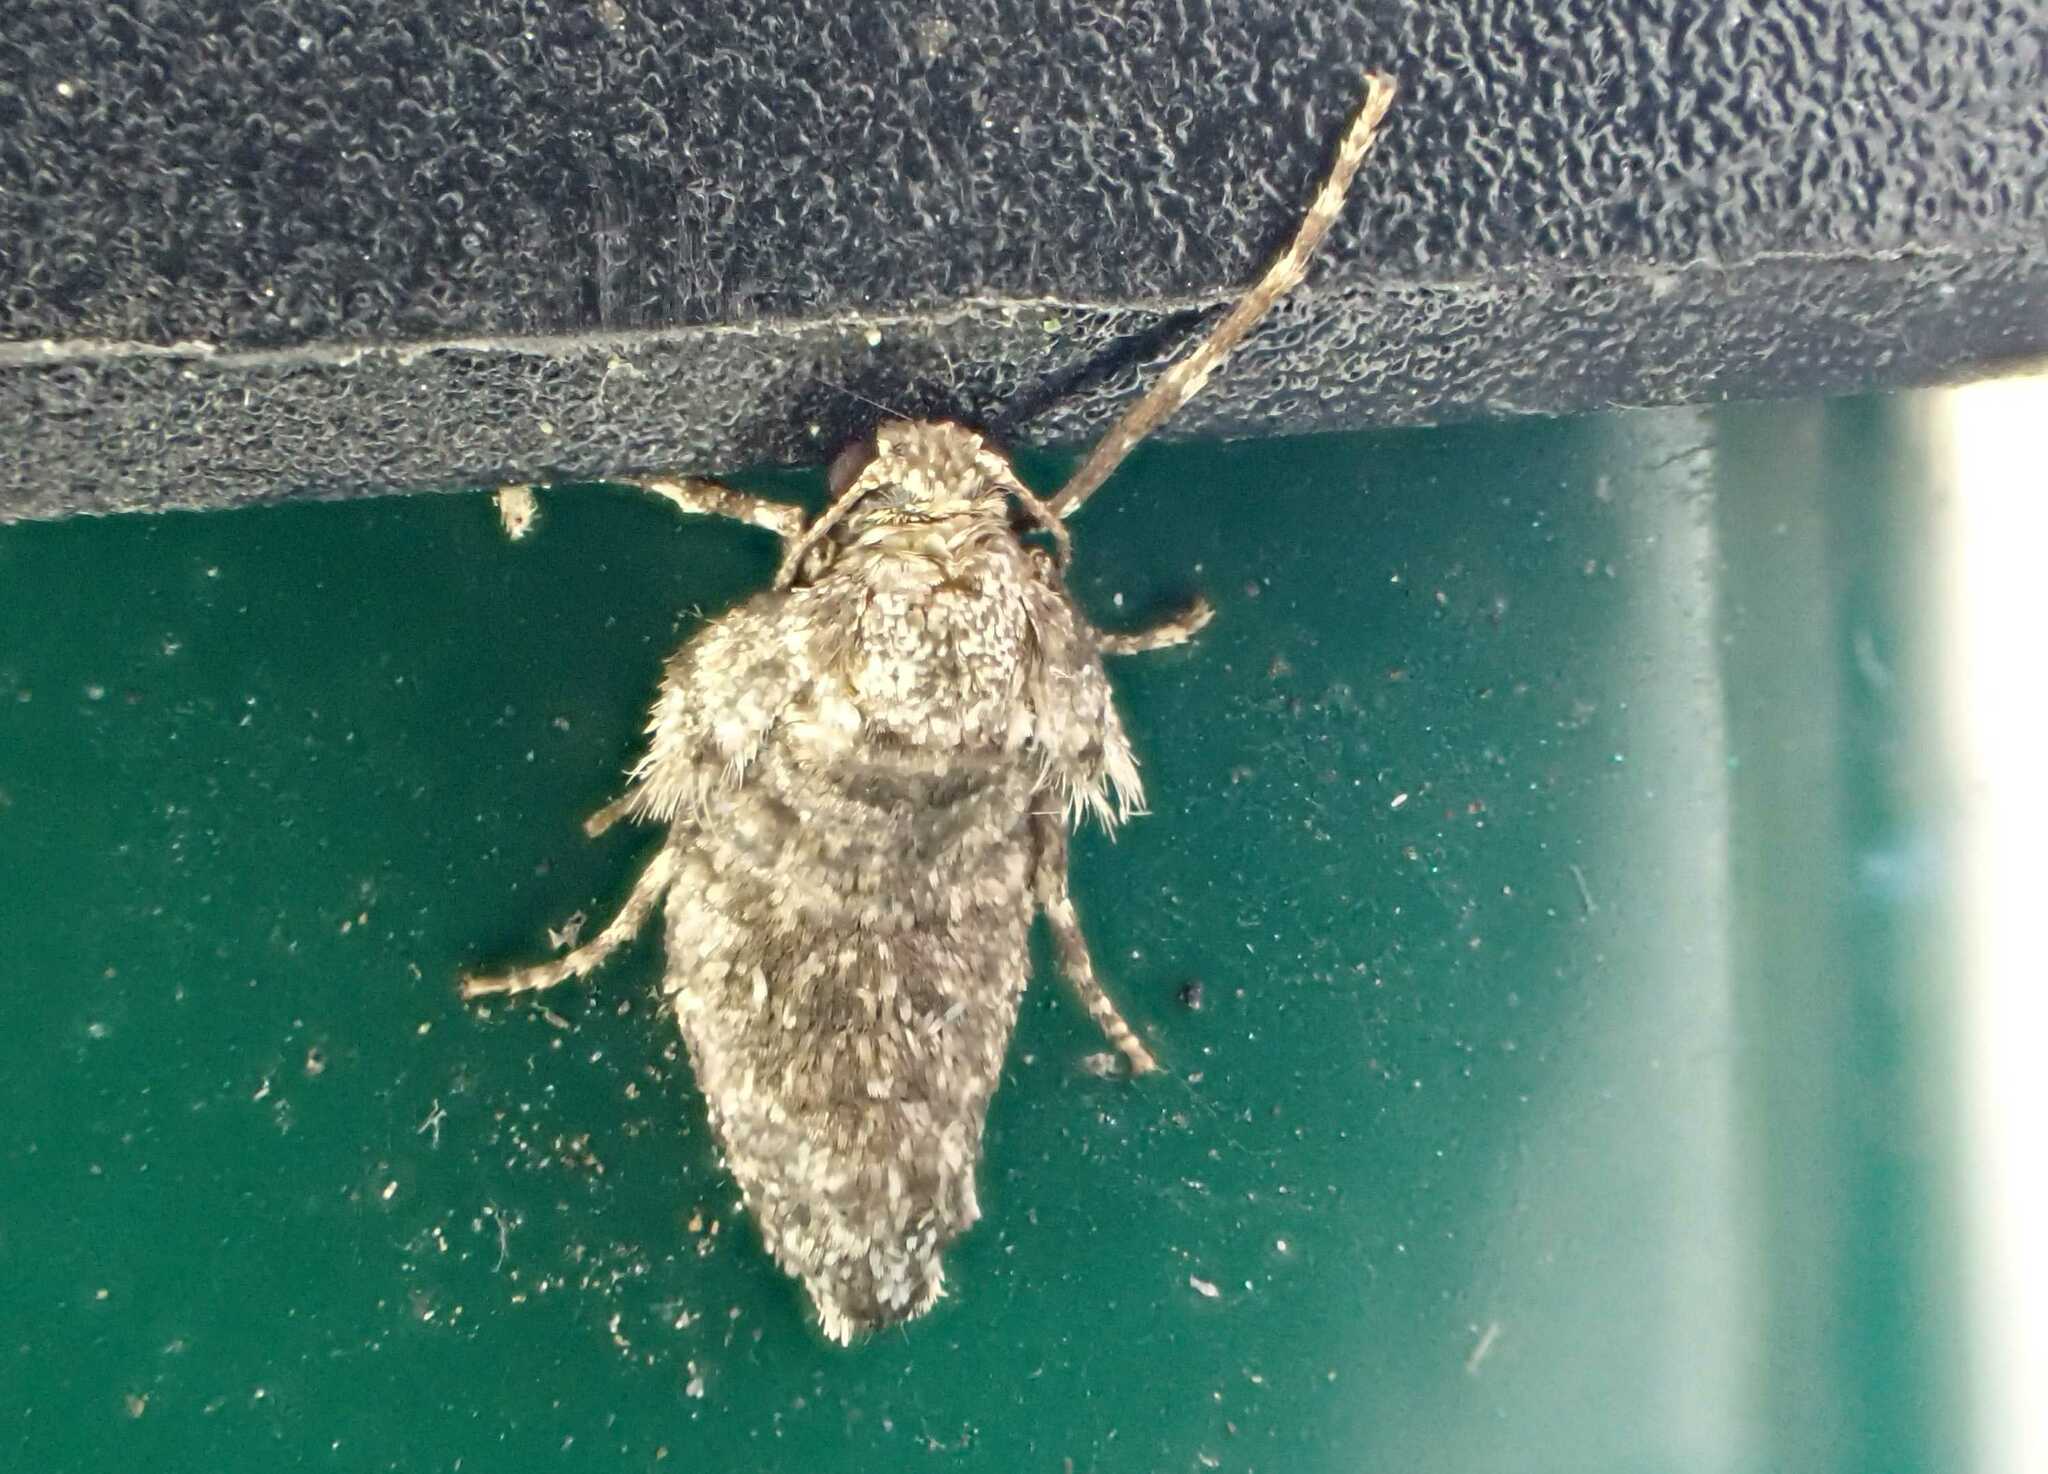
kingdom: Animalia
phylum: Arthropoda
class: Insecta
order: Lepidoptera
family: Geometridae
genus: Operophtera
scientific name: Operophtera brumata
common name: Winter moth
